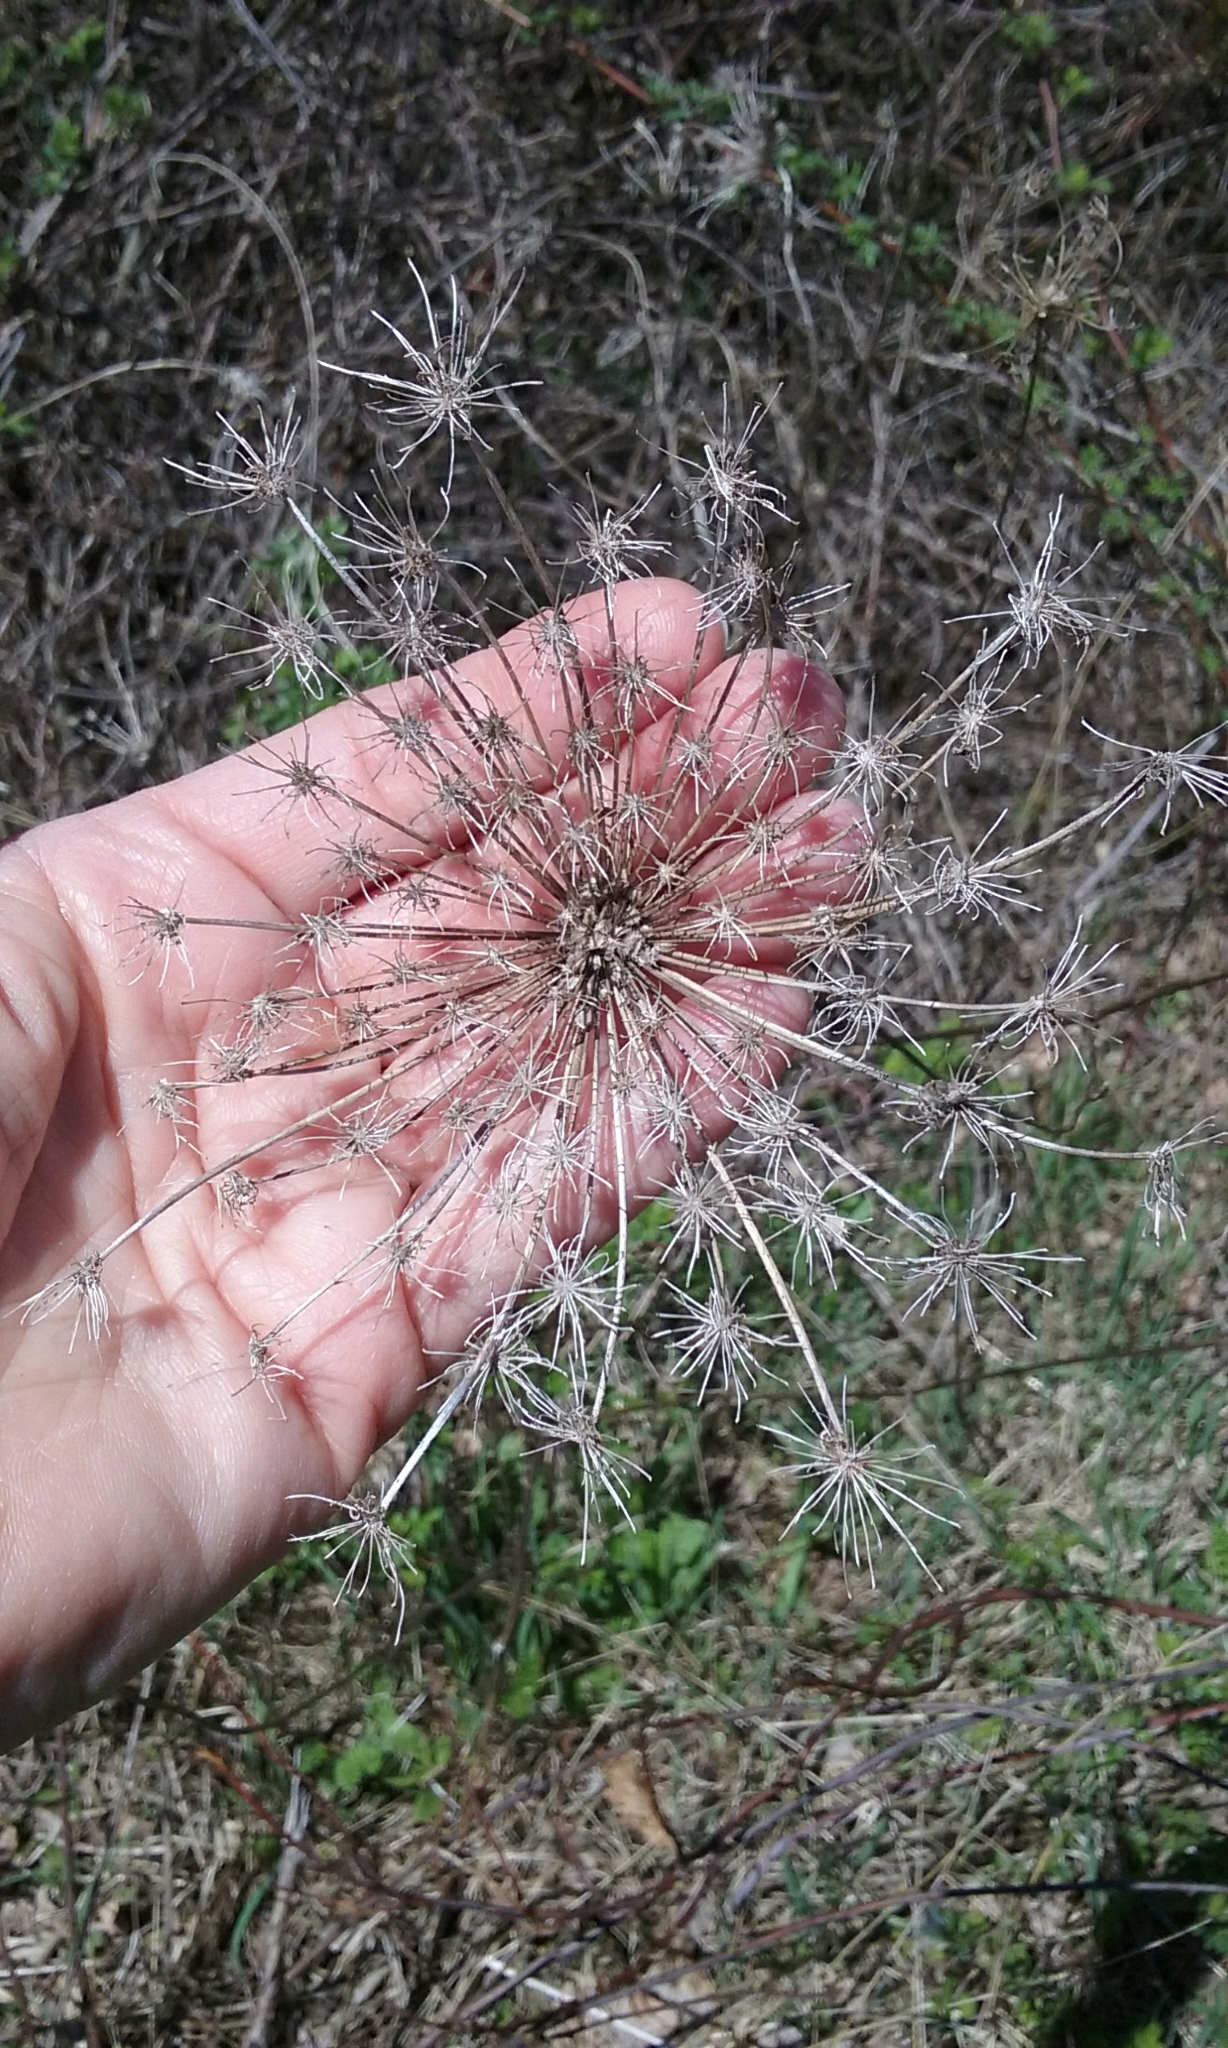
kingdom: Plantae
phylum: Tracheophyta
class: Magnoliopsida
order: Apiales
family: Apiaceae
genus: Daucus
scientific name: Daucus carota
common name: Wild carrot
